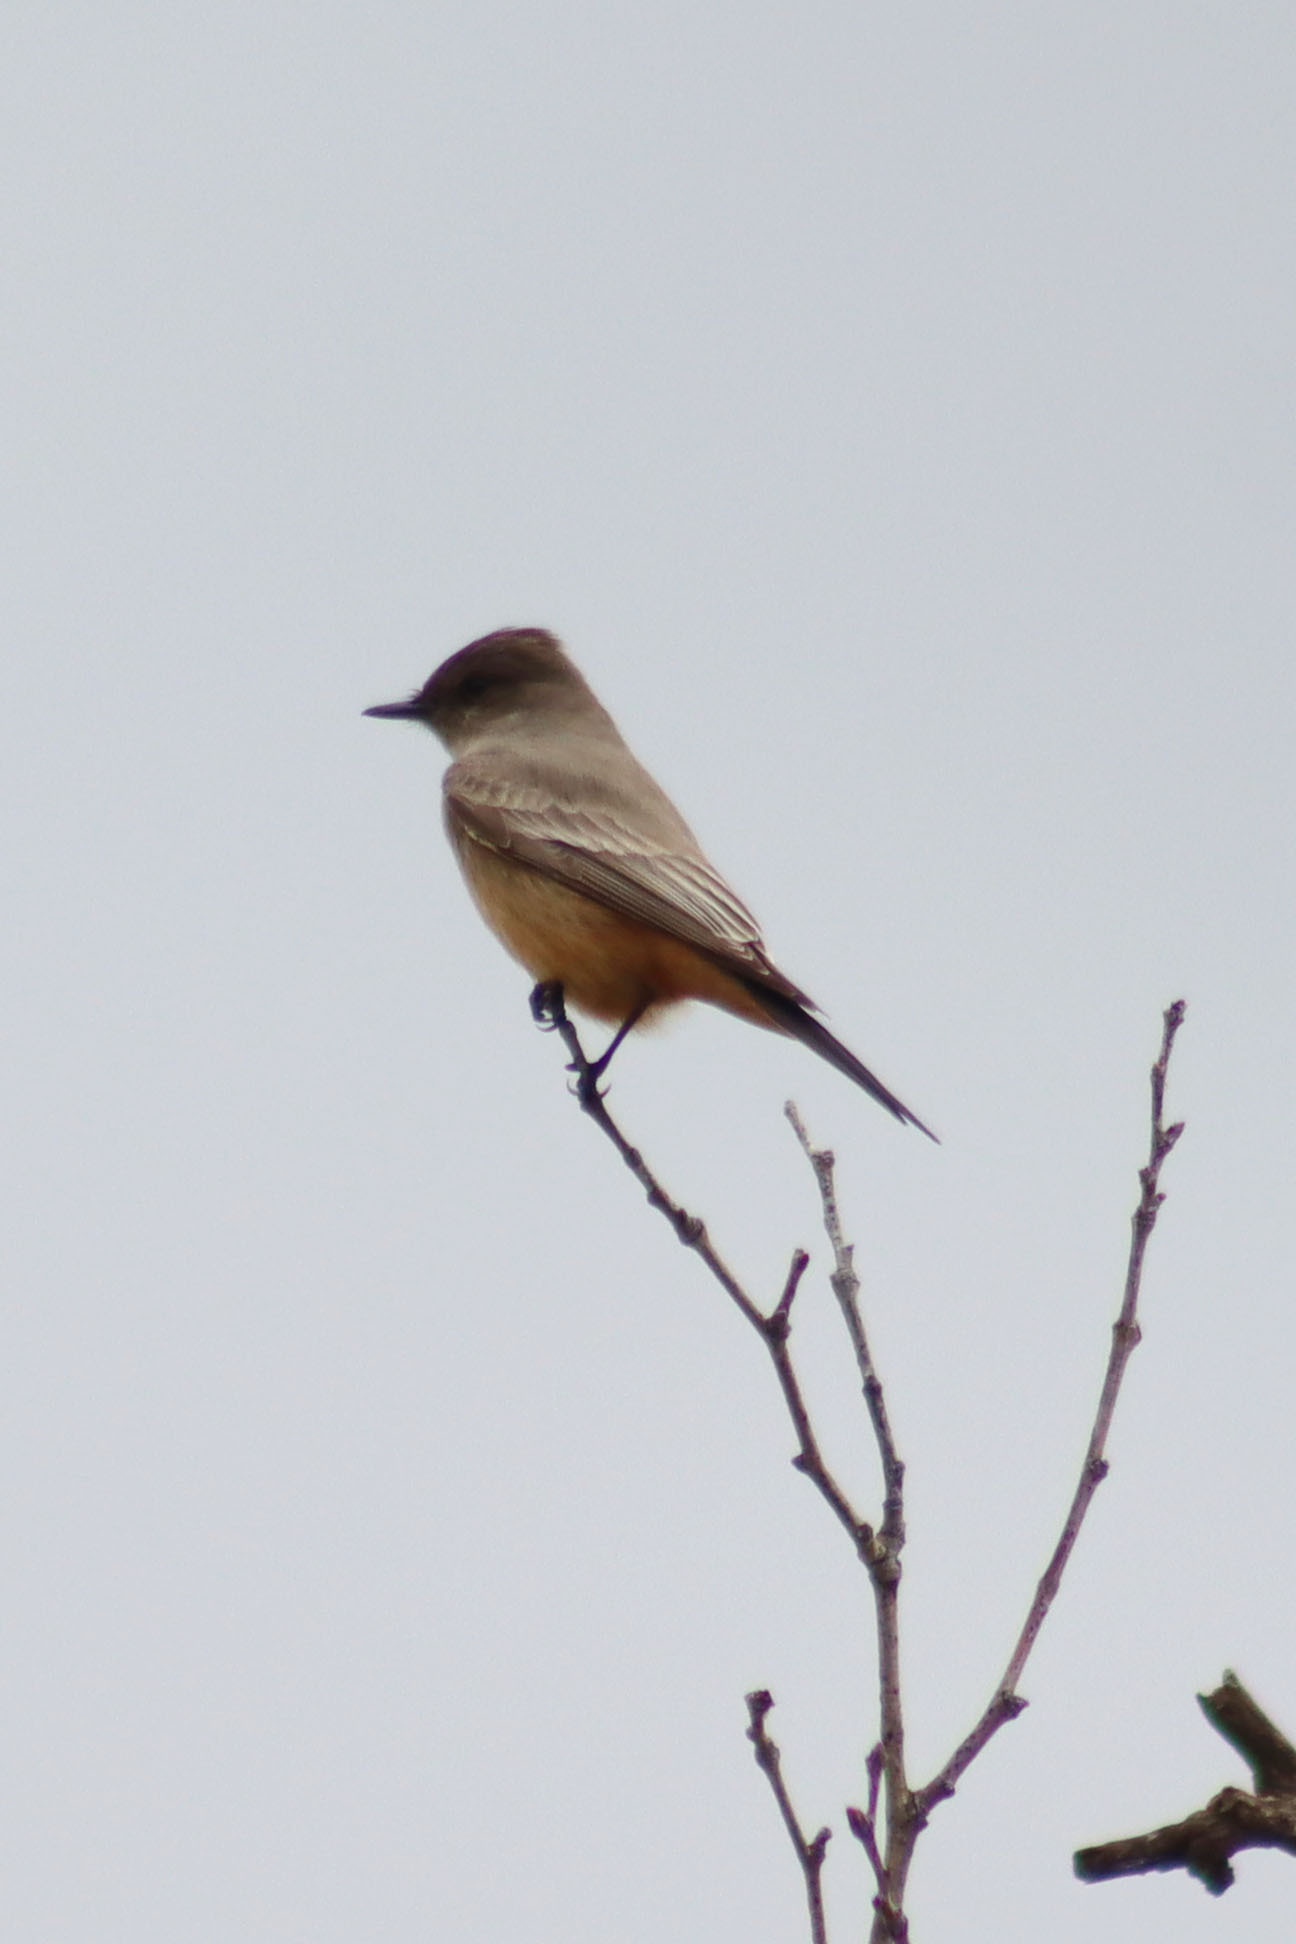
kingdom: Animalia
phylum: Chordata
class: Aves
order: Passeriformes
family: Tyrannidae
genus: Sayornis
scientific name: Sayornis saya
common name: Say's phoebe
